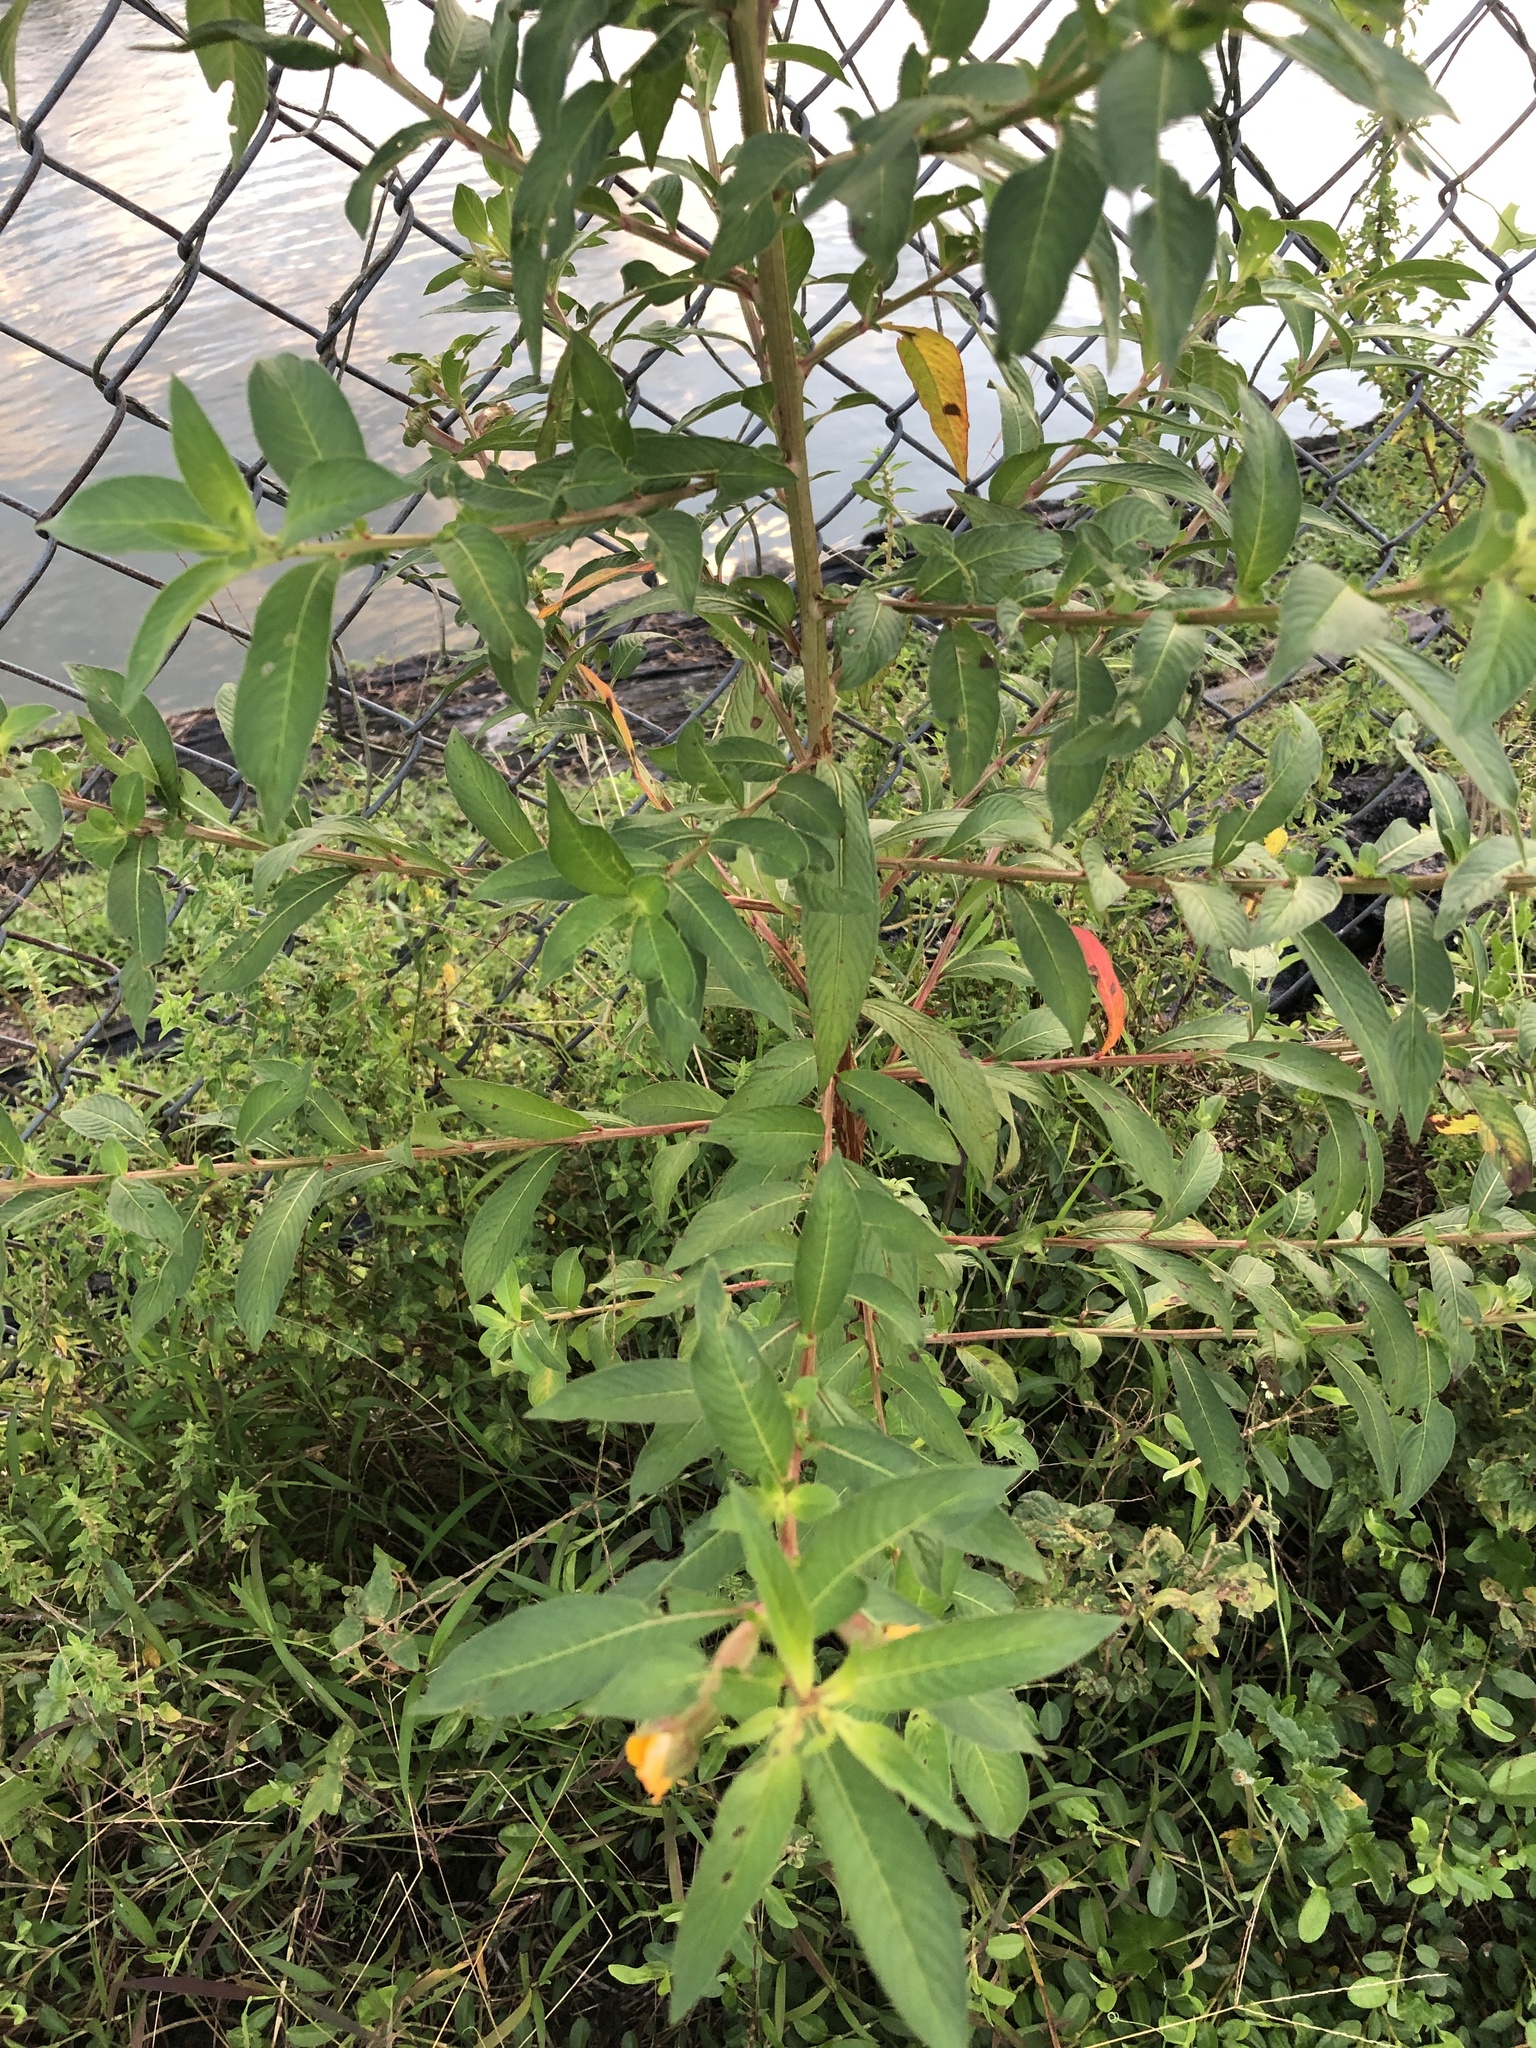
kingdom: Plantae
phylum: Tracheophyta
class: Magnoliopsida
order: Myrtales
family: Onagraceae
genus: Ludwigia
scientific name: Ludwigia octovalvis
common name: Water-primrose
